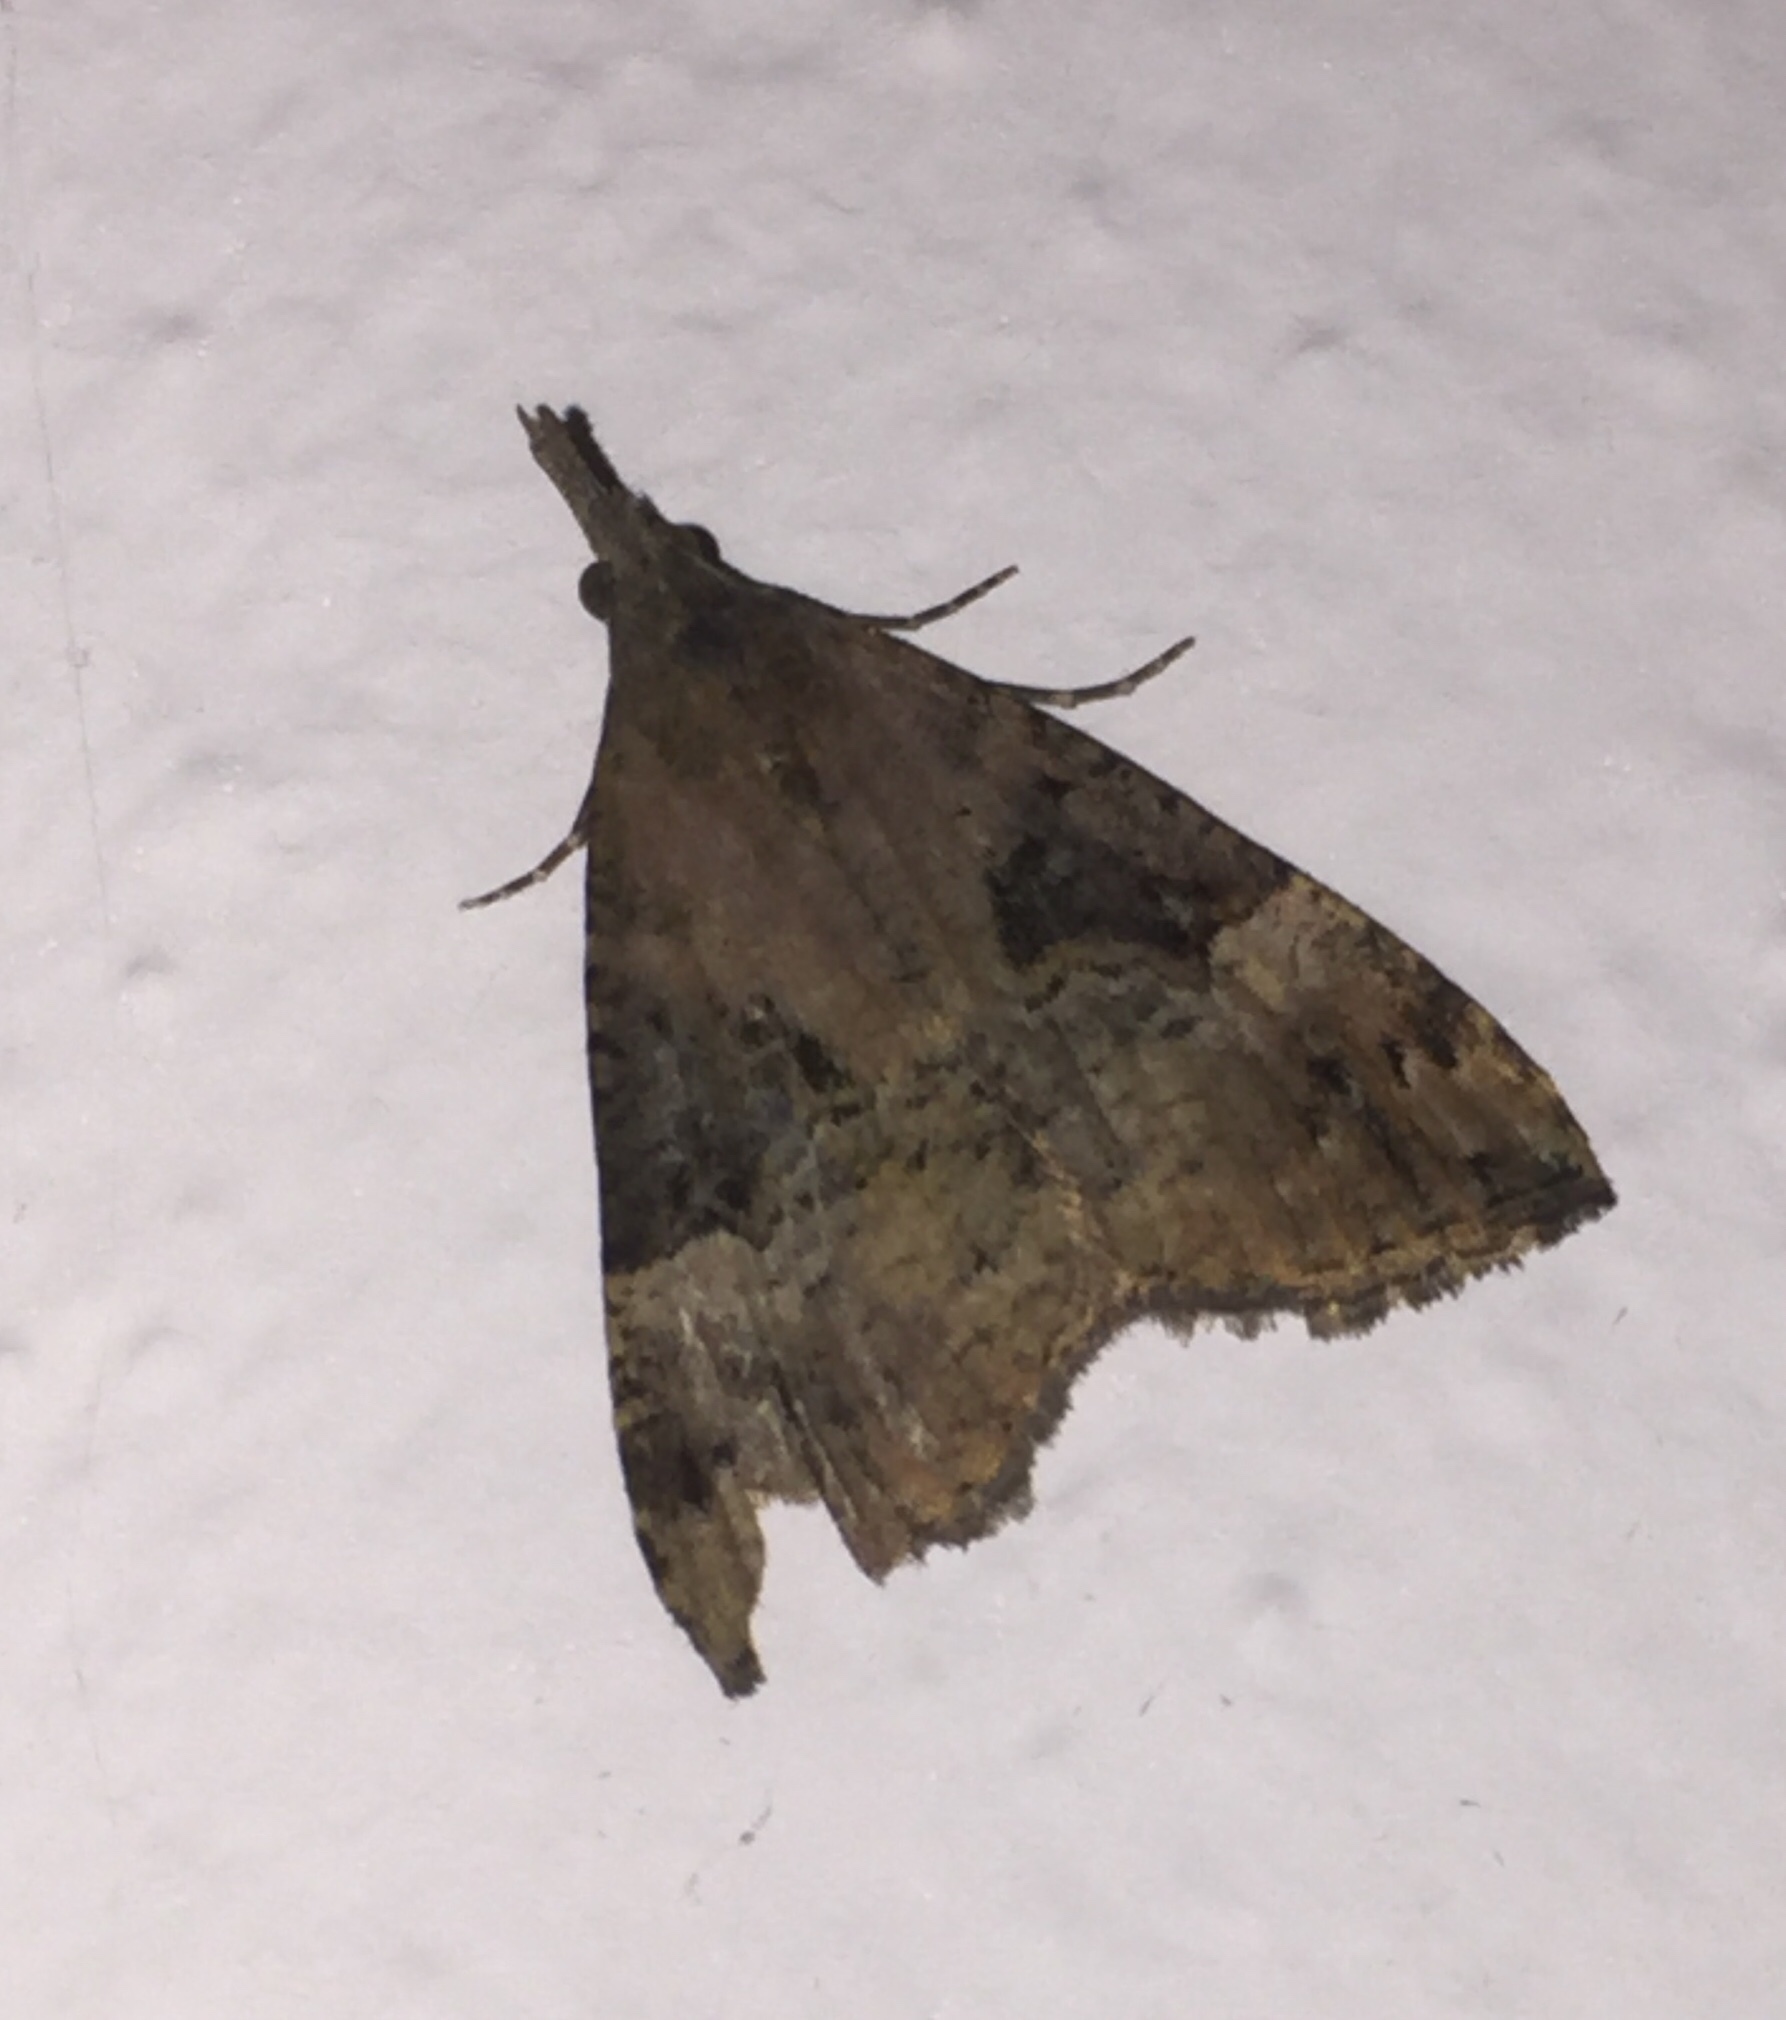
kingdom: Animalia
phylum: Arthropoda
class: Insecta
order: Lepidoptera
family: Erebidae
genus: Hypena
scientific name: Hypena obsitalis
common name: Bloxworth snout
